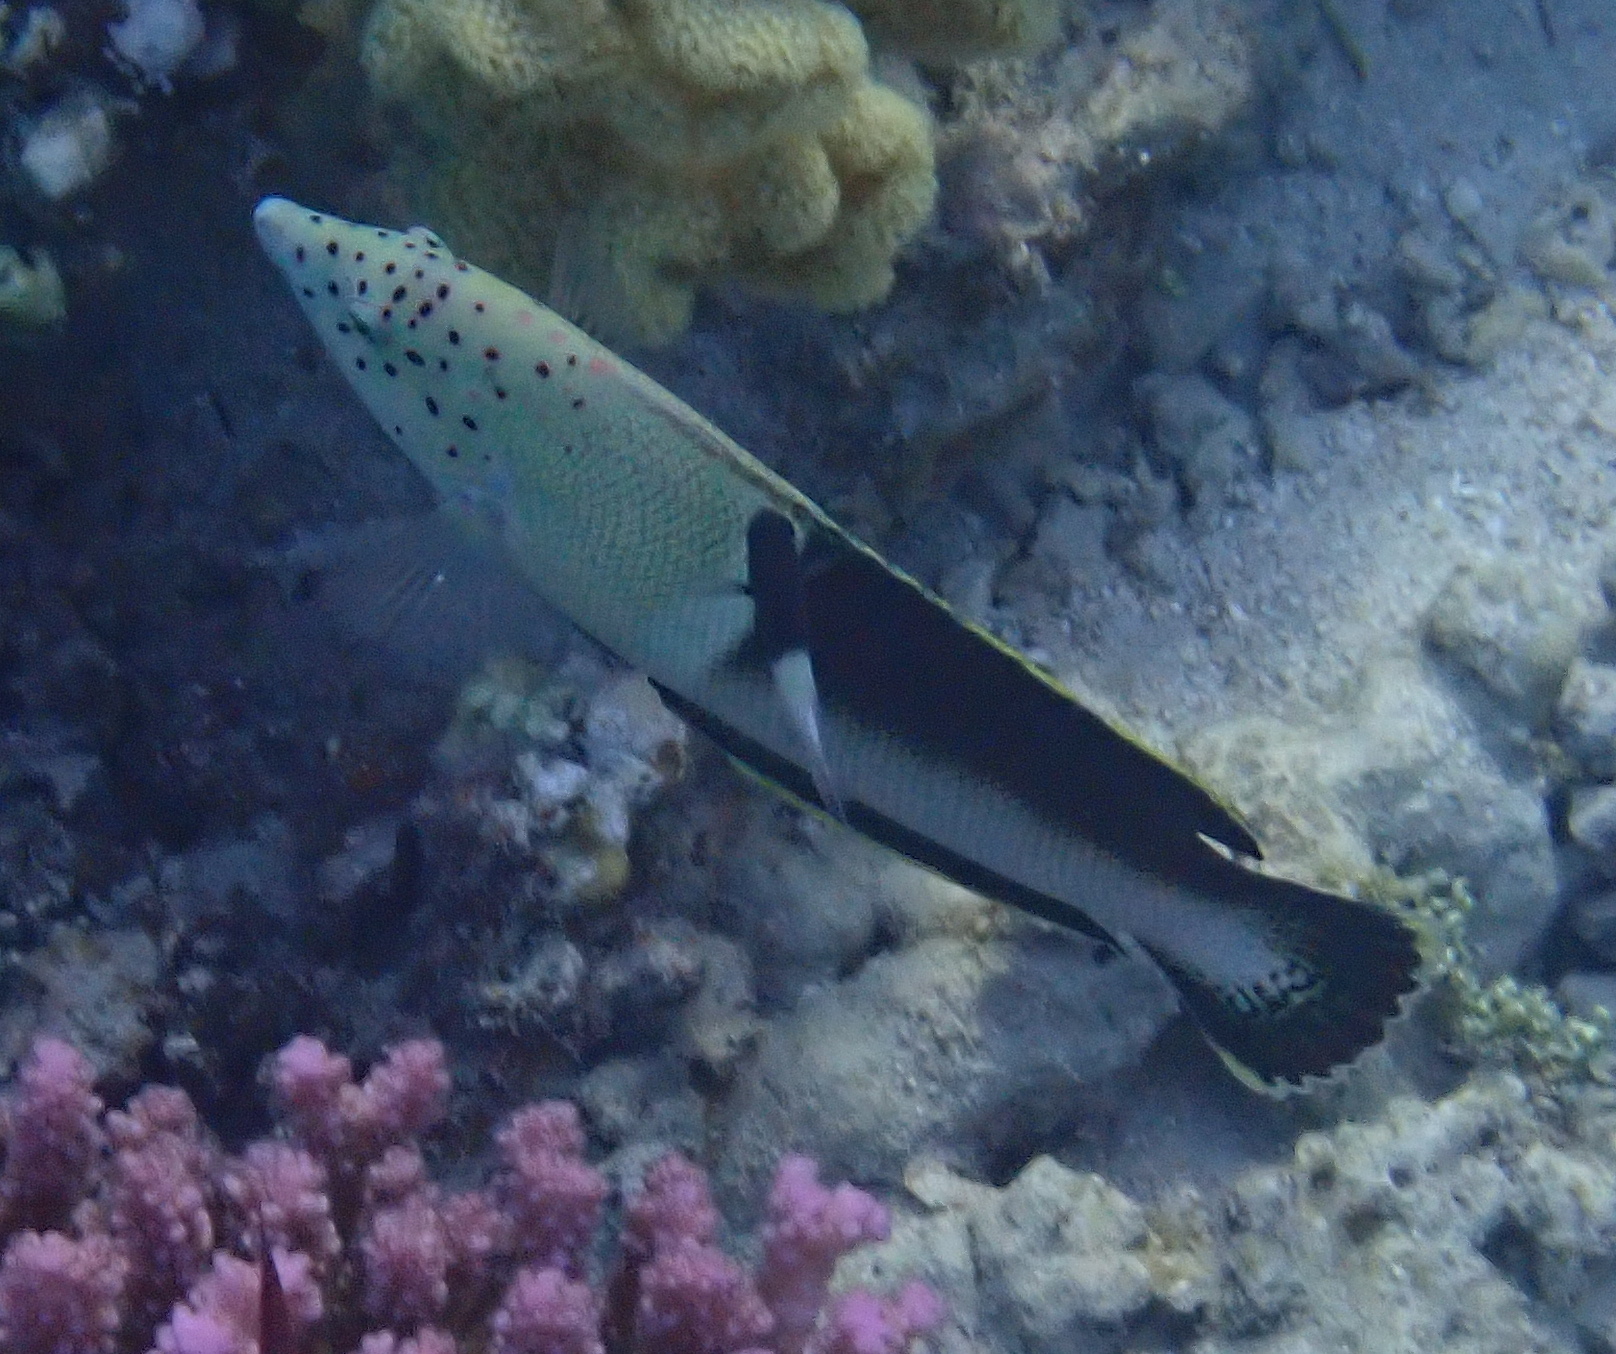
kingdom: Animalia
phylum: Chordata
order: Perciformes
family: Labridae
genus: Coris
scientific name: Coris aygula
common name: Clown coris
